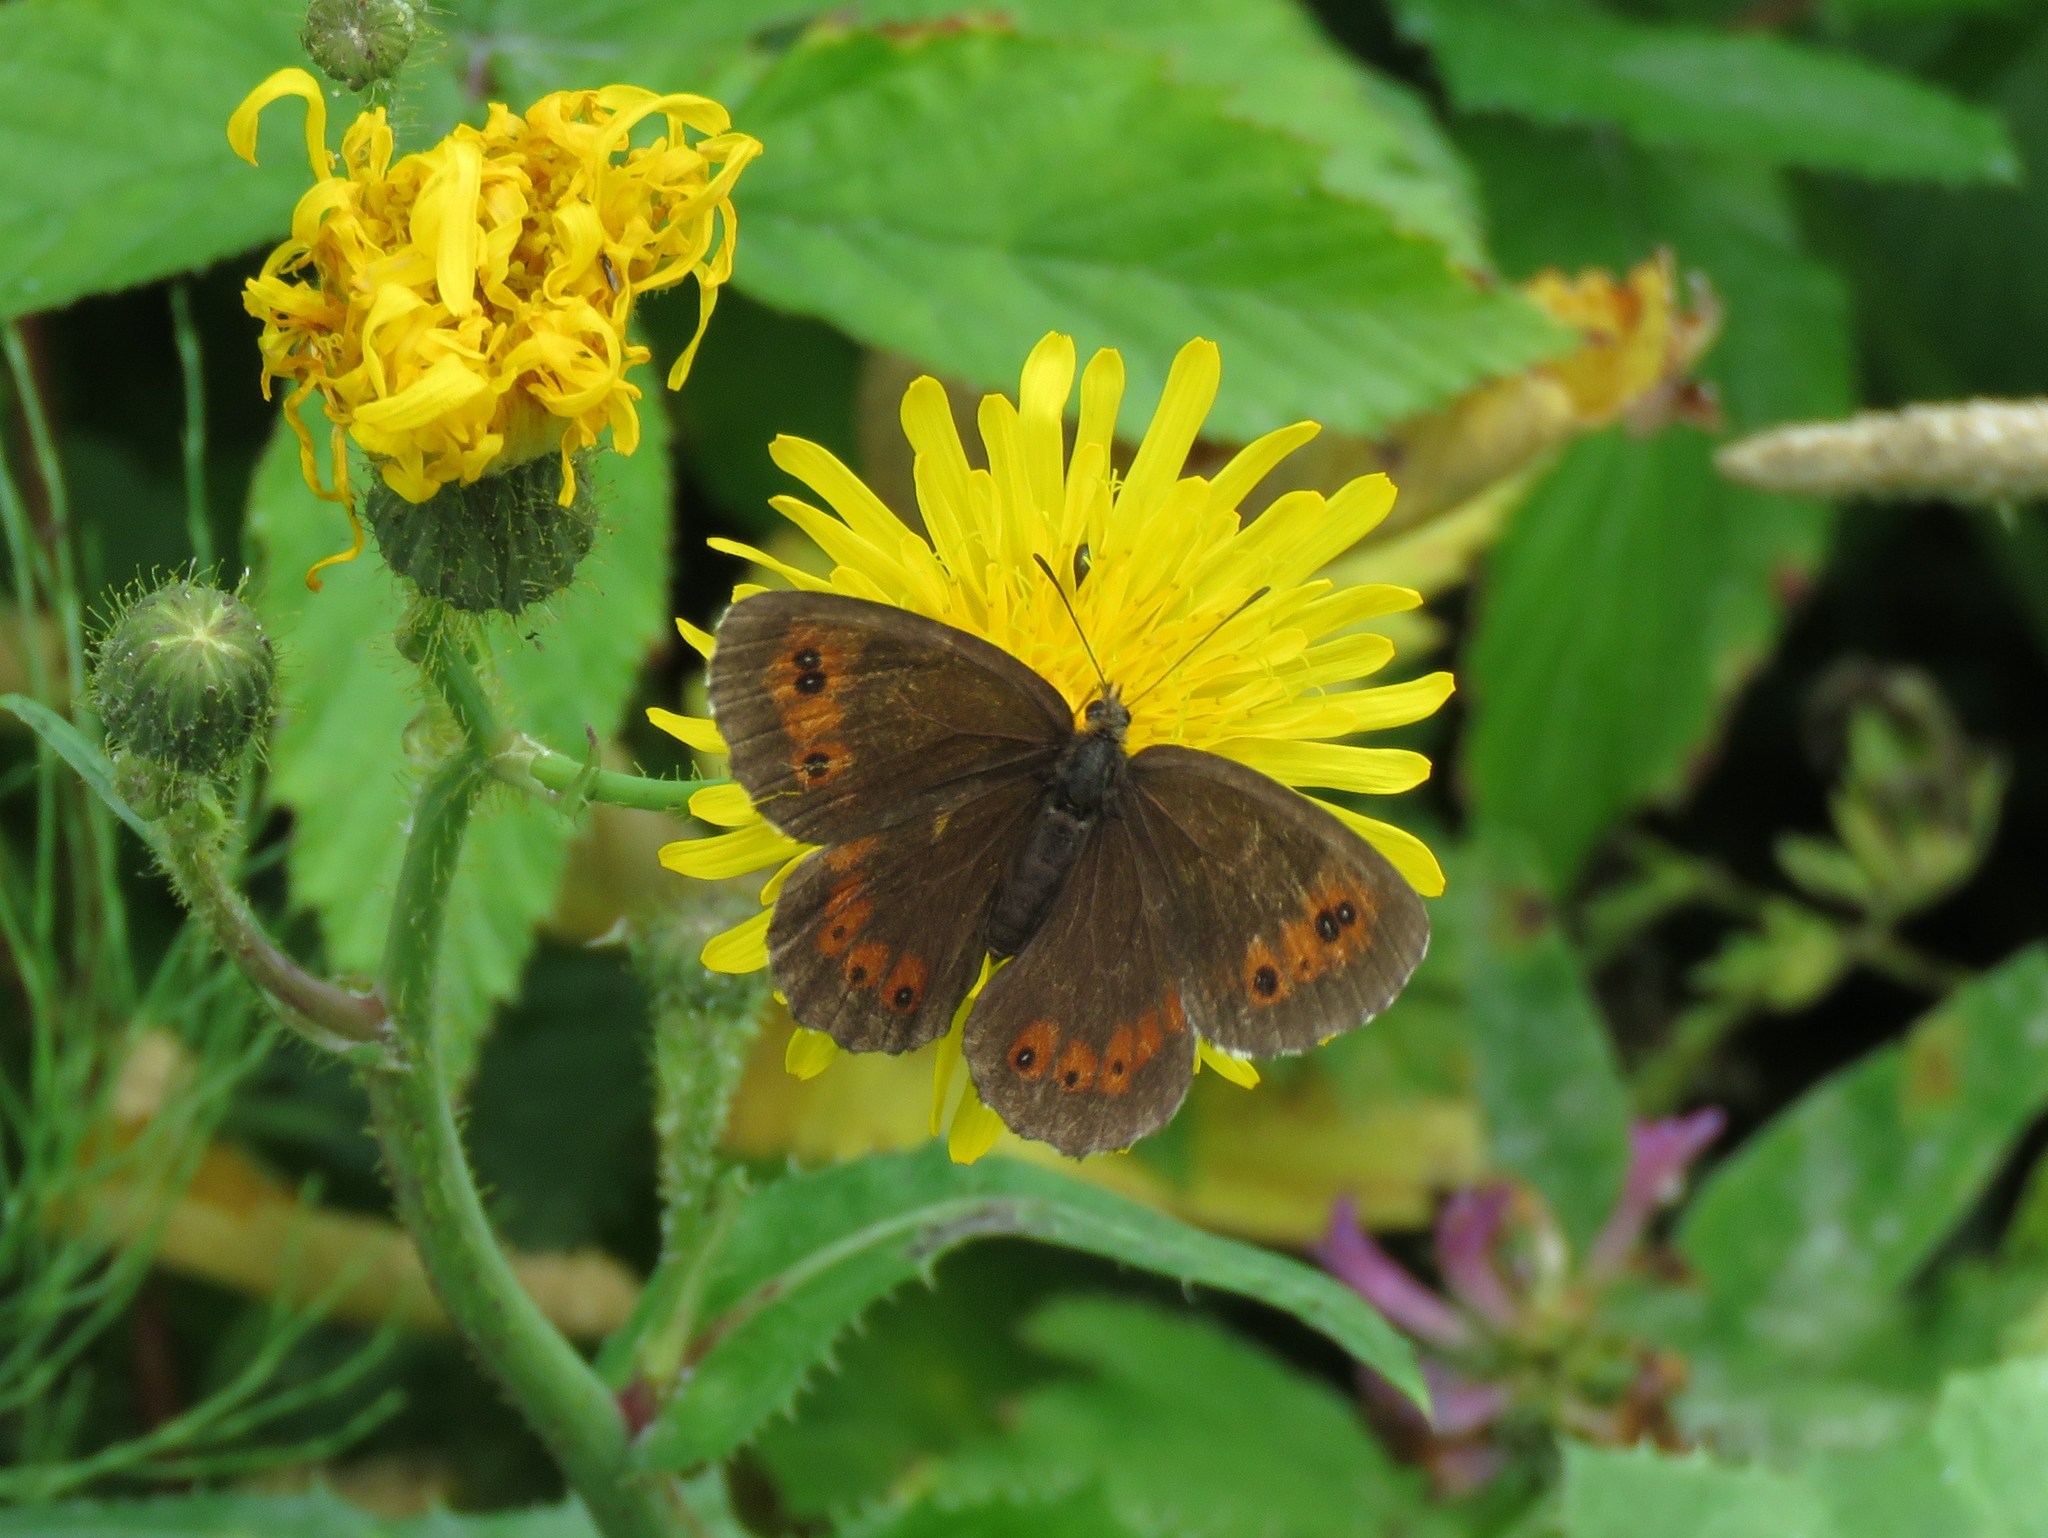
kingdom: Animalia
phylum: Arthropoda
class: Insecta
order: Lepidoptera
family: Nymphalidae
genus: Erebia
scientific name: Erebia ligea
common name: Arran brown
